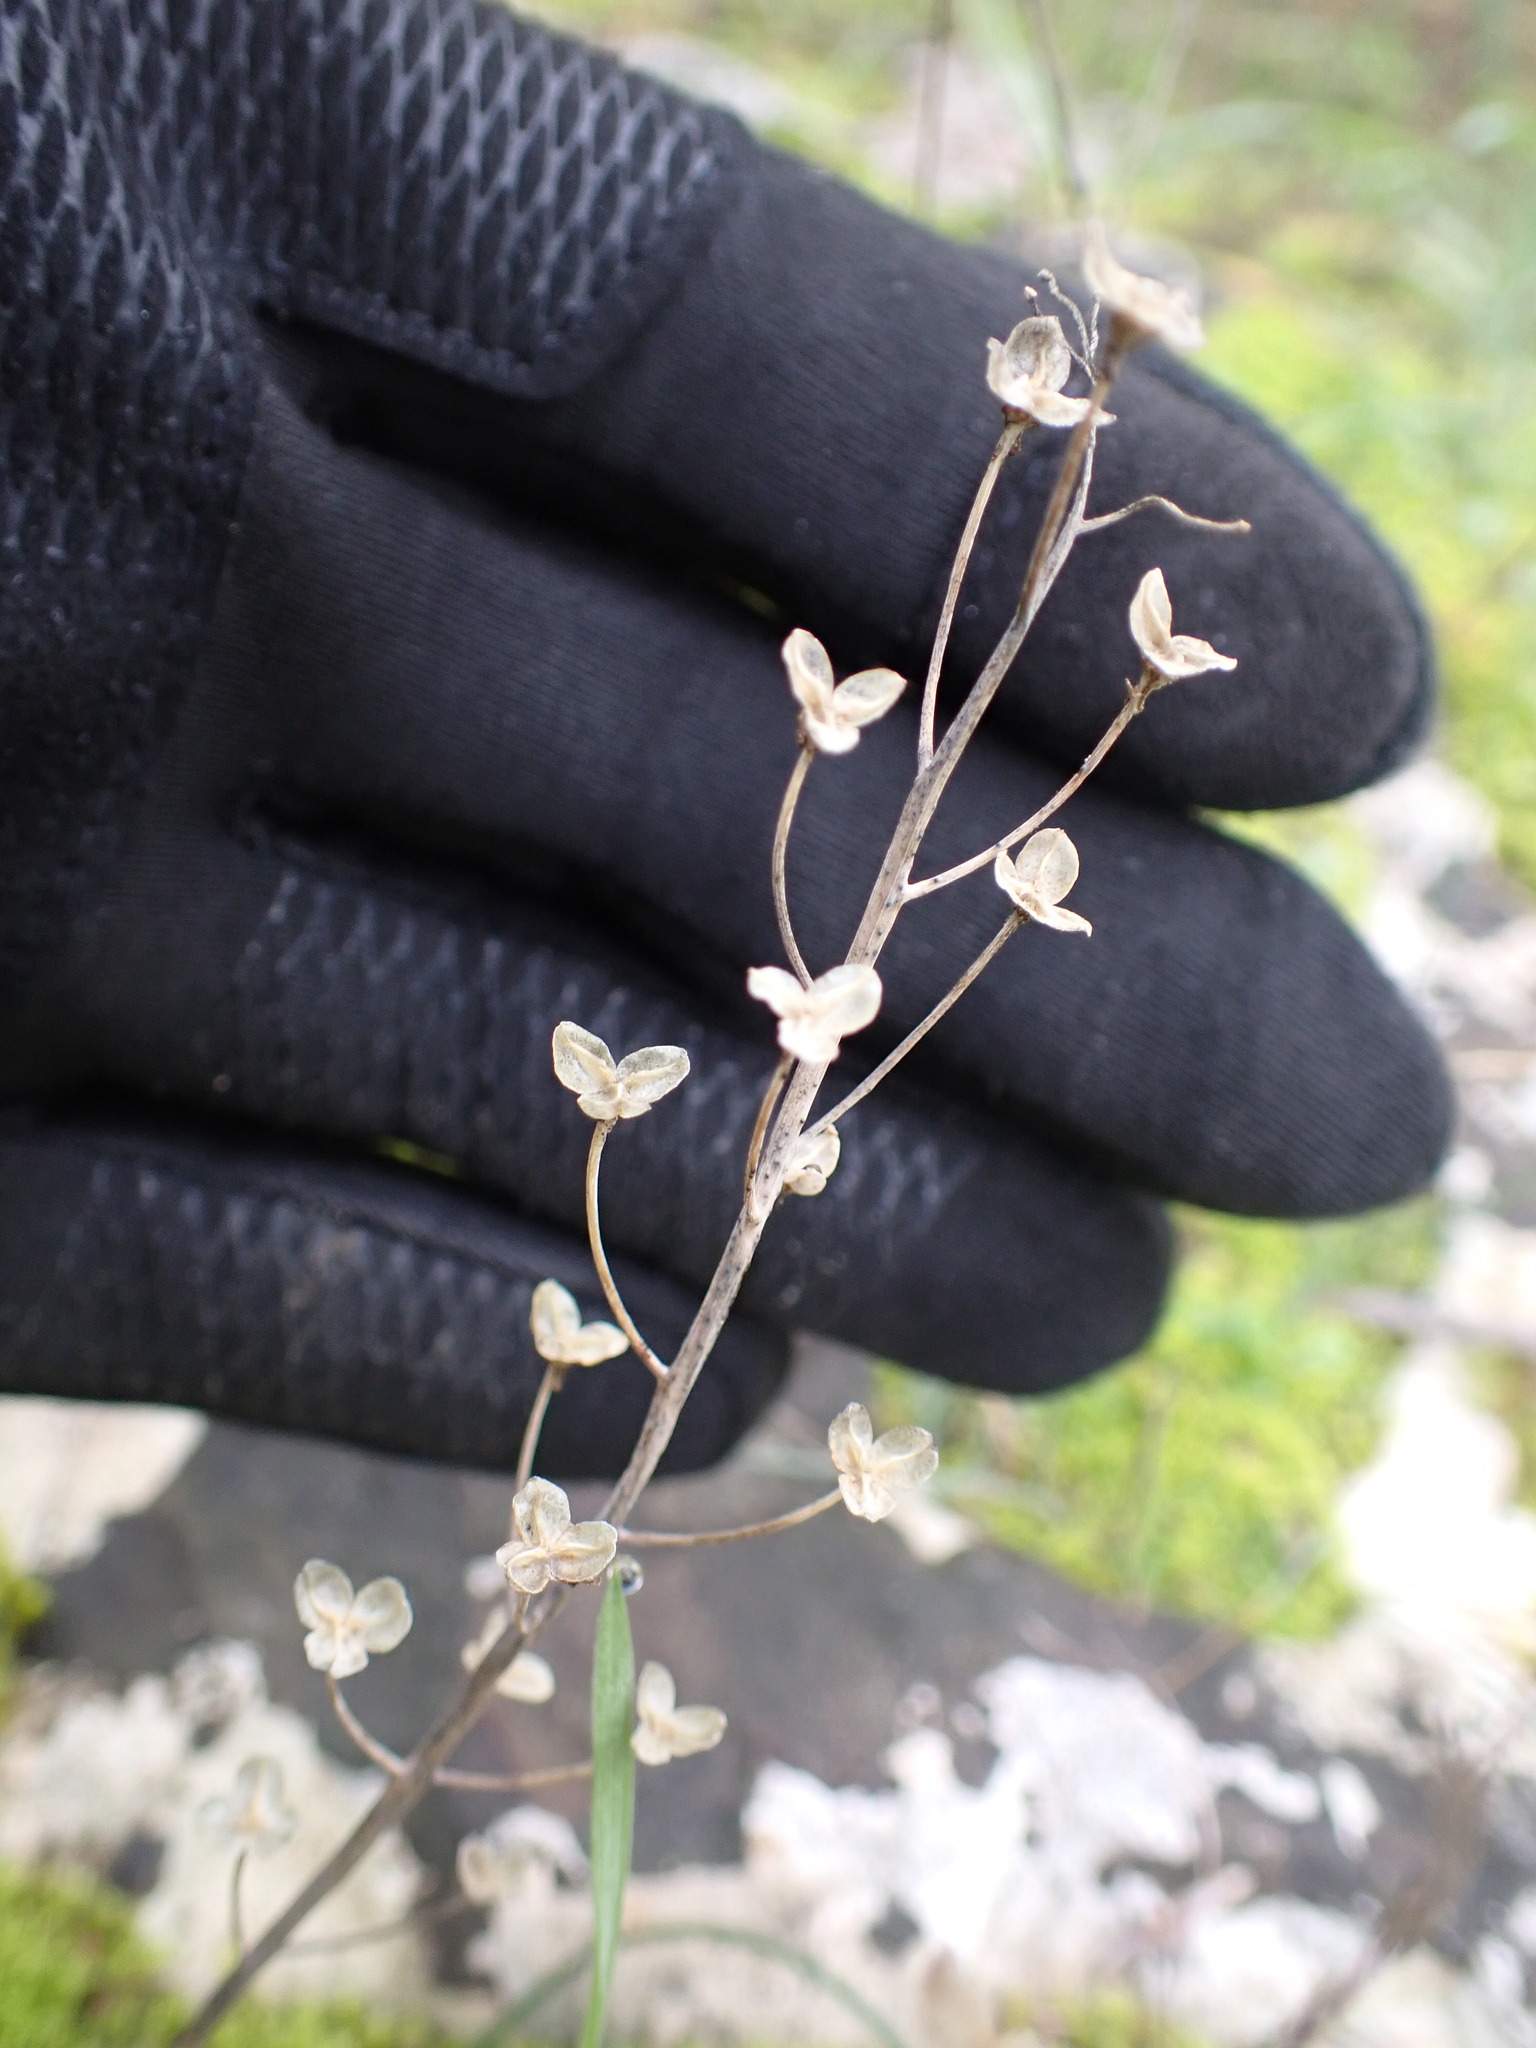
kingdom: Plantae
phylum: Tracheophyta
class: Liliopsida
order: Asparagales
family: Asparagaceae
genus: Prospero
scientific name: Prospero autumnale
